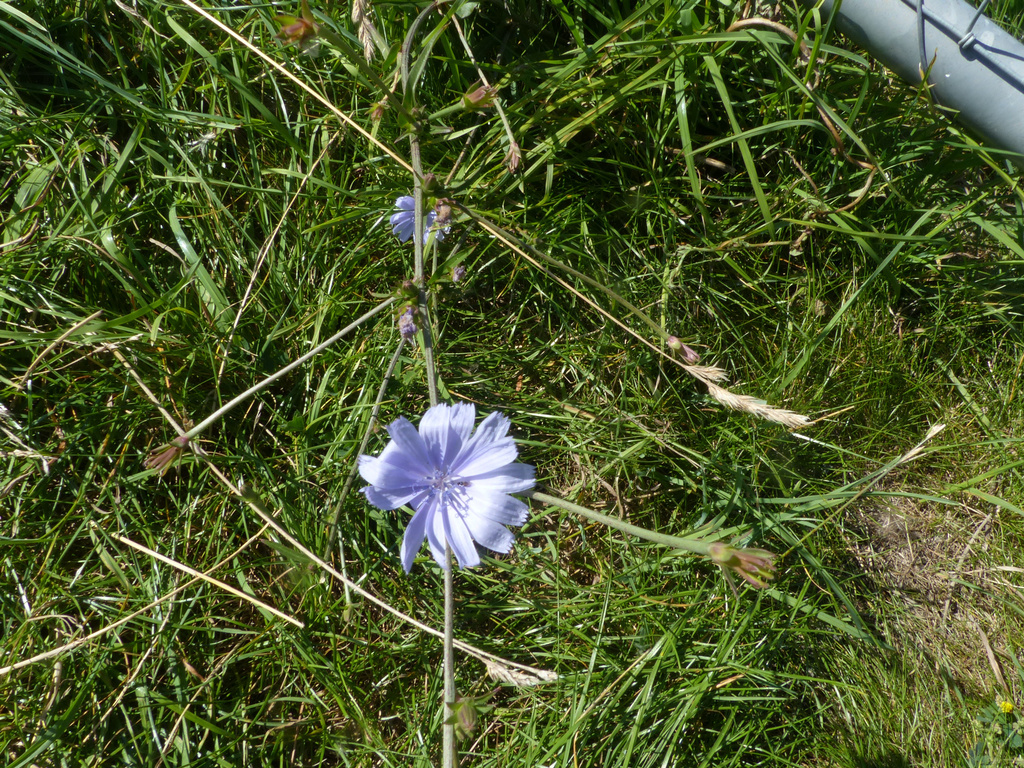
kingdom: Plantae
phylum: Tracheophyta
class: Magnoliopsida
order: Asterales
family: Asteraceae
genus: Cichorium
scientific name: Cichorium intybus
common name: Chicory
